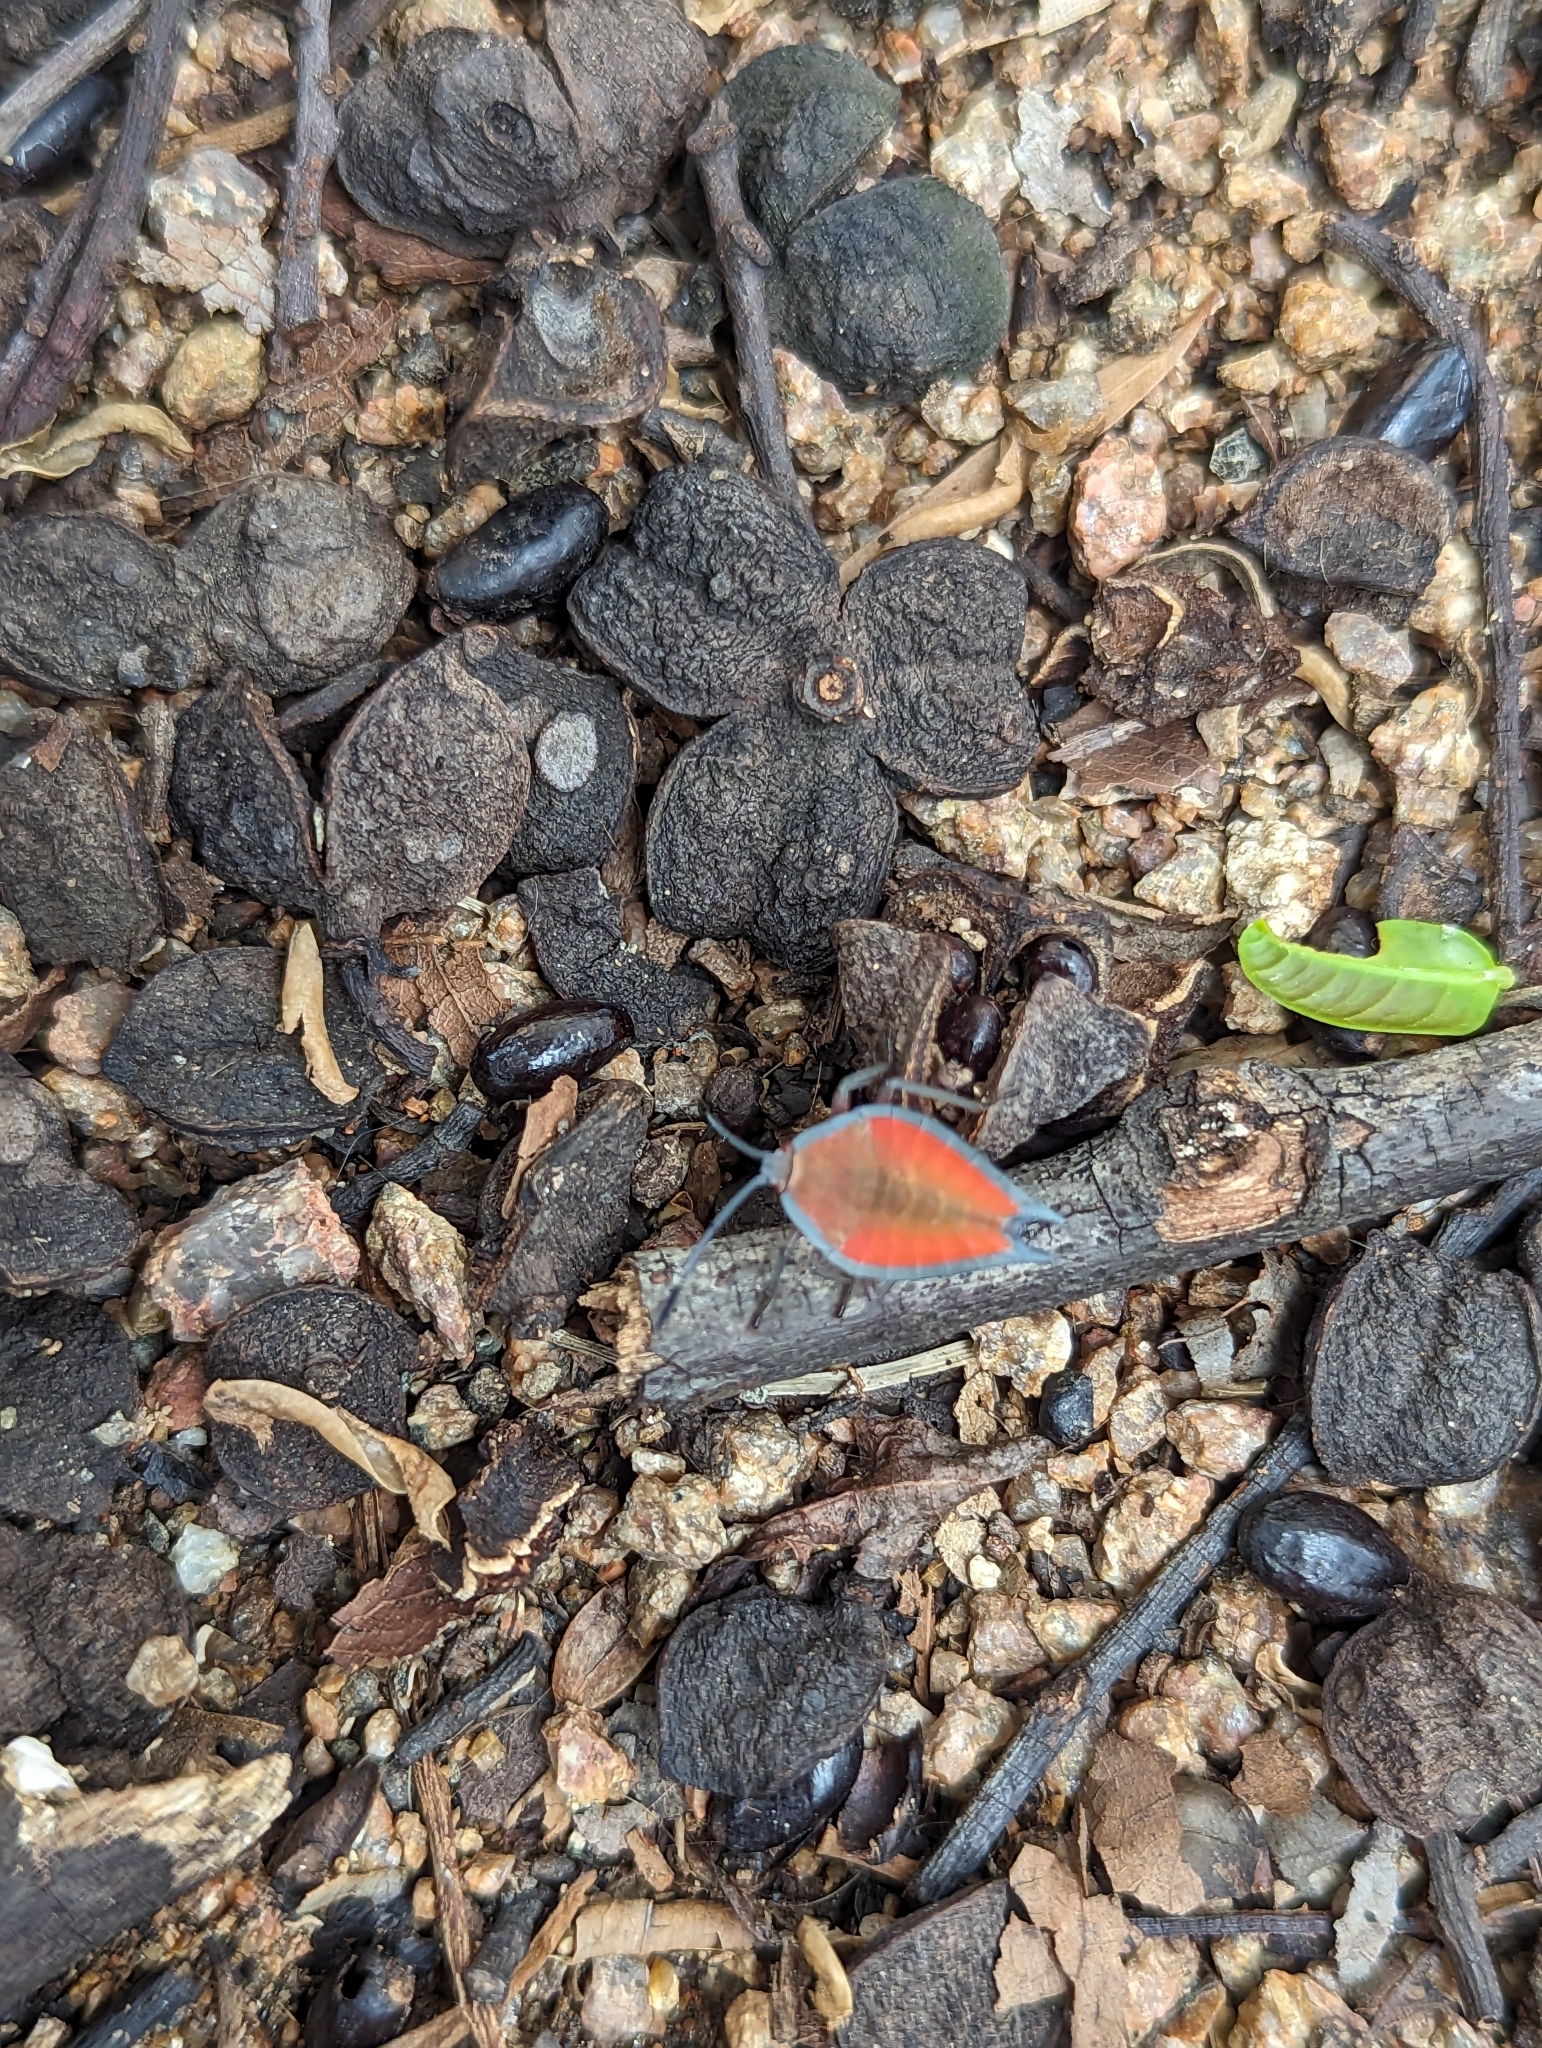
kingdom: Animalia
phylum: Arthropoda
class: Insecta
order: Hemiptera
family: Tessaratomidae
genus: Lyramorpha
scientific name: Lyramorpha rosea
